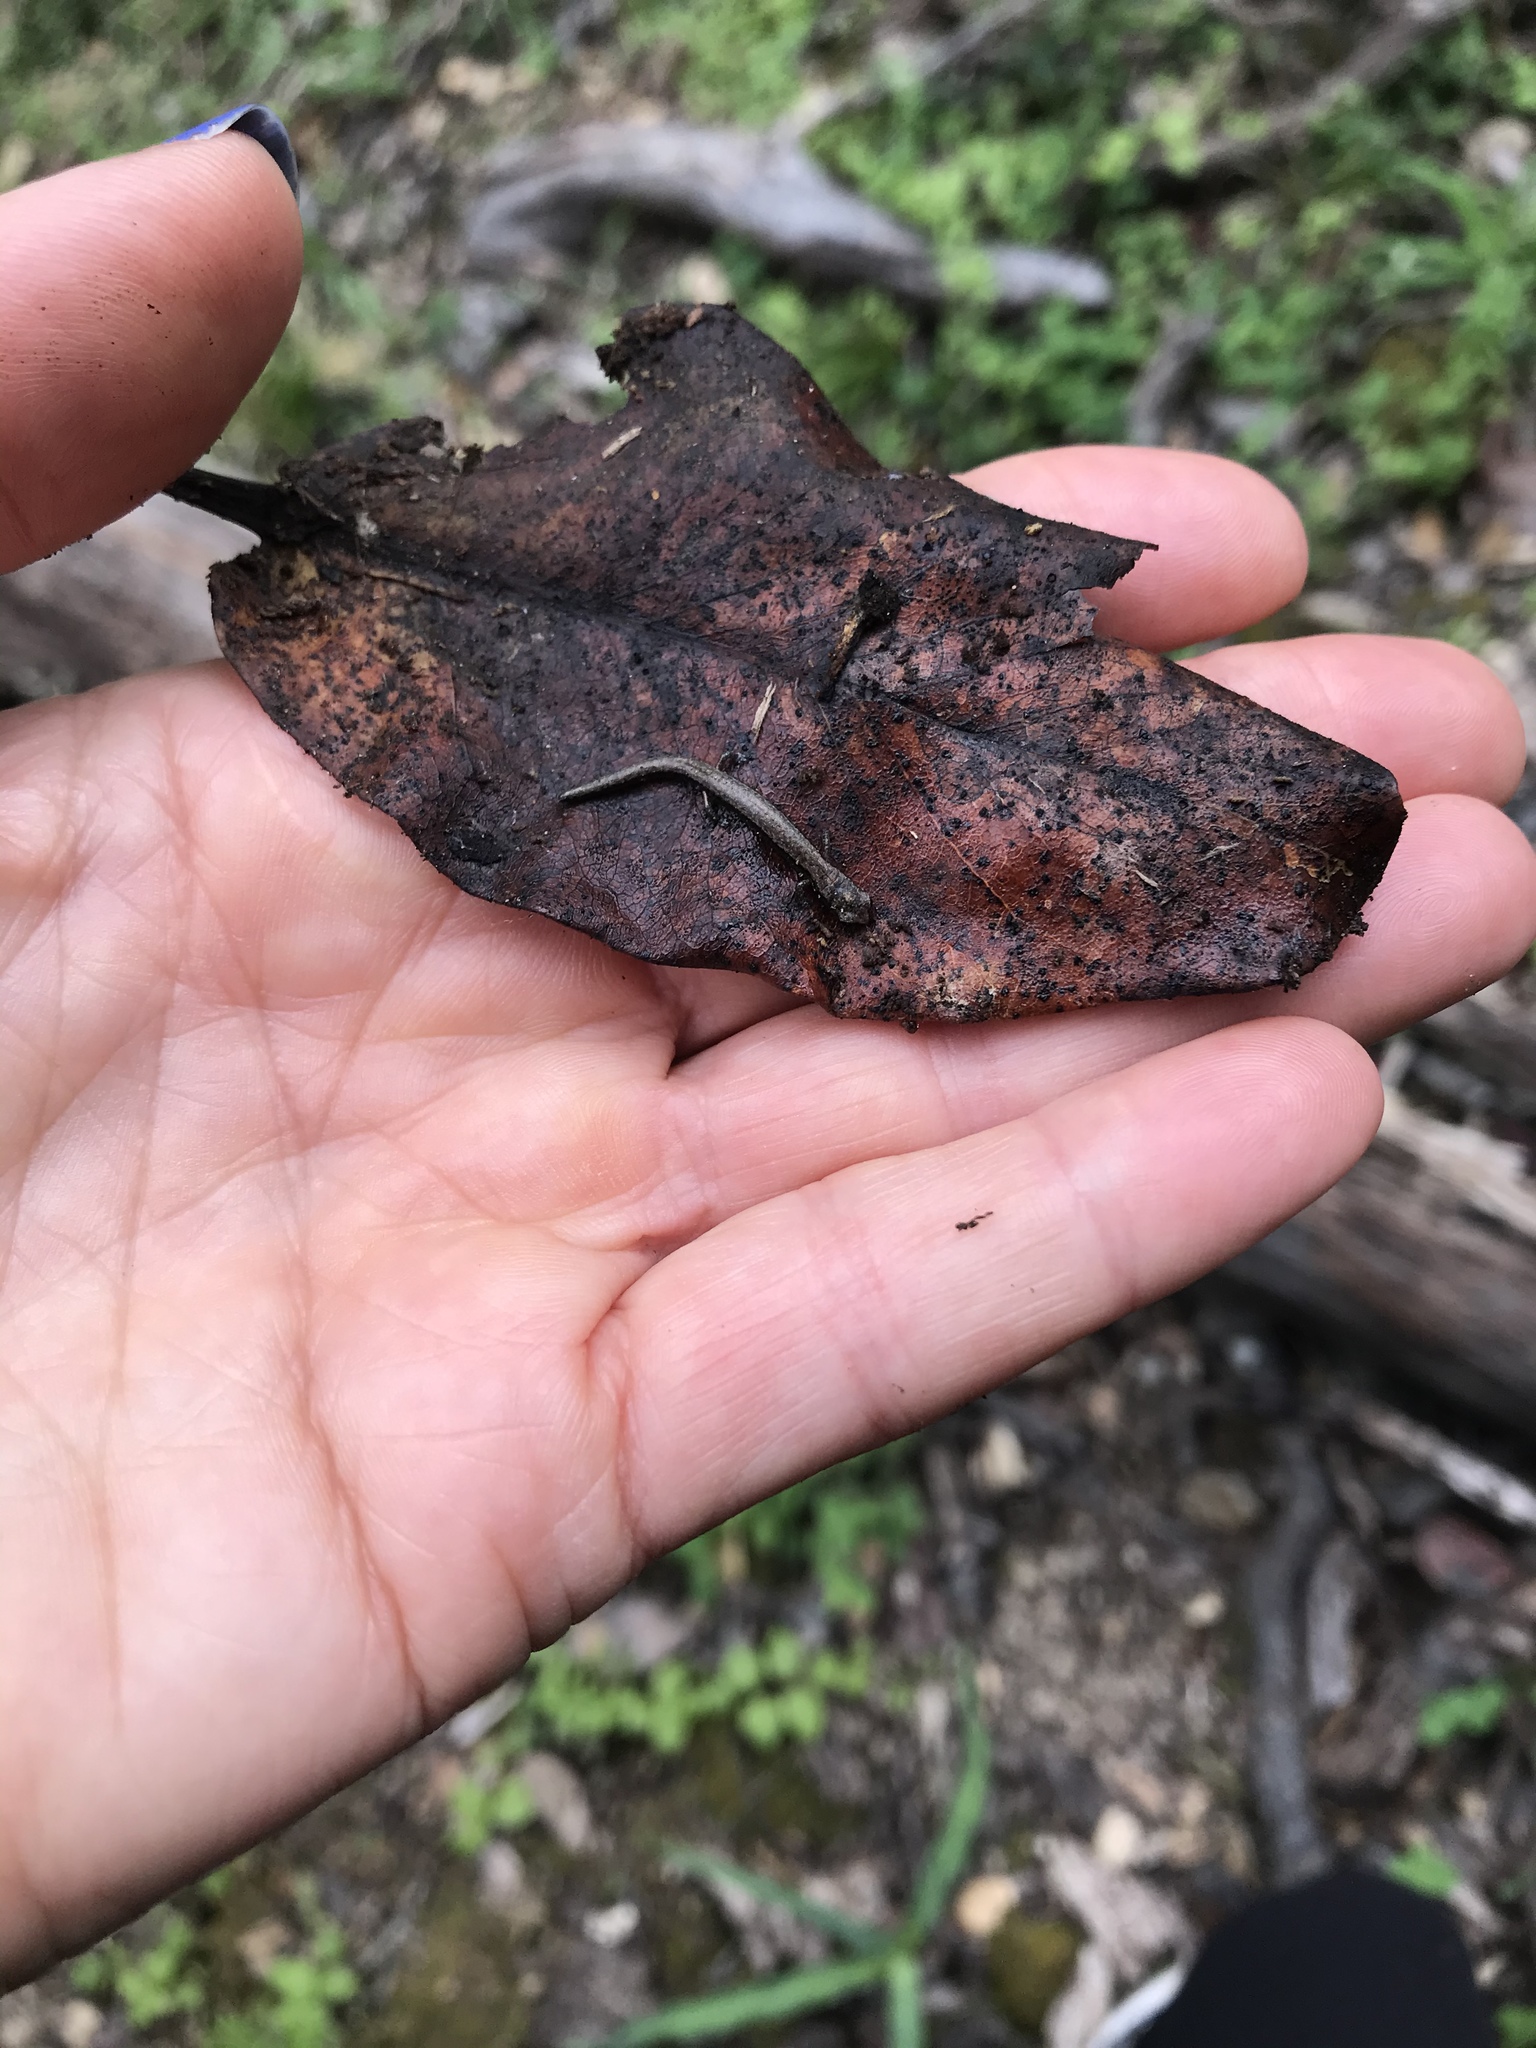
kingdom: Animalia
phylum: Chordata
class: Amphibia
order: Caudata
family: Plethodontidae
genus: Batrachoseps
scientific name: Batrachoseps attenuatus
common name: California slender salamander
